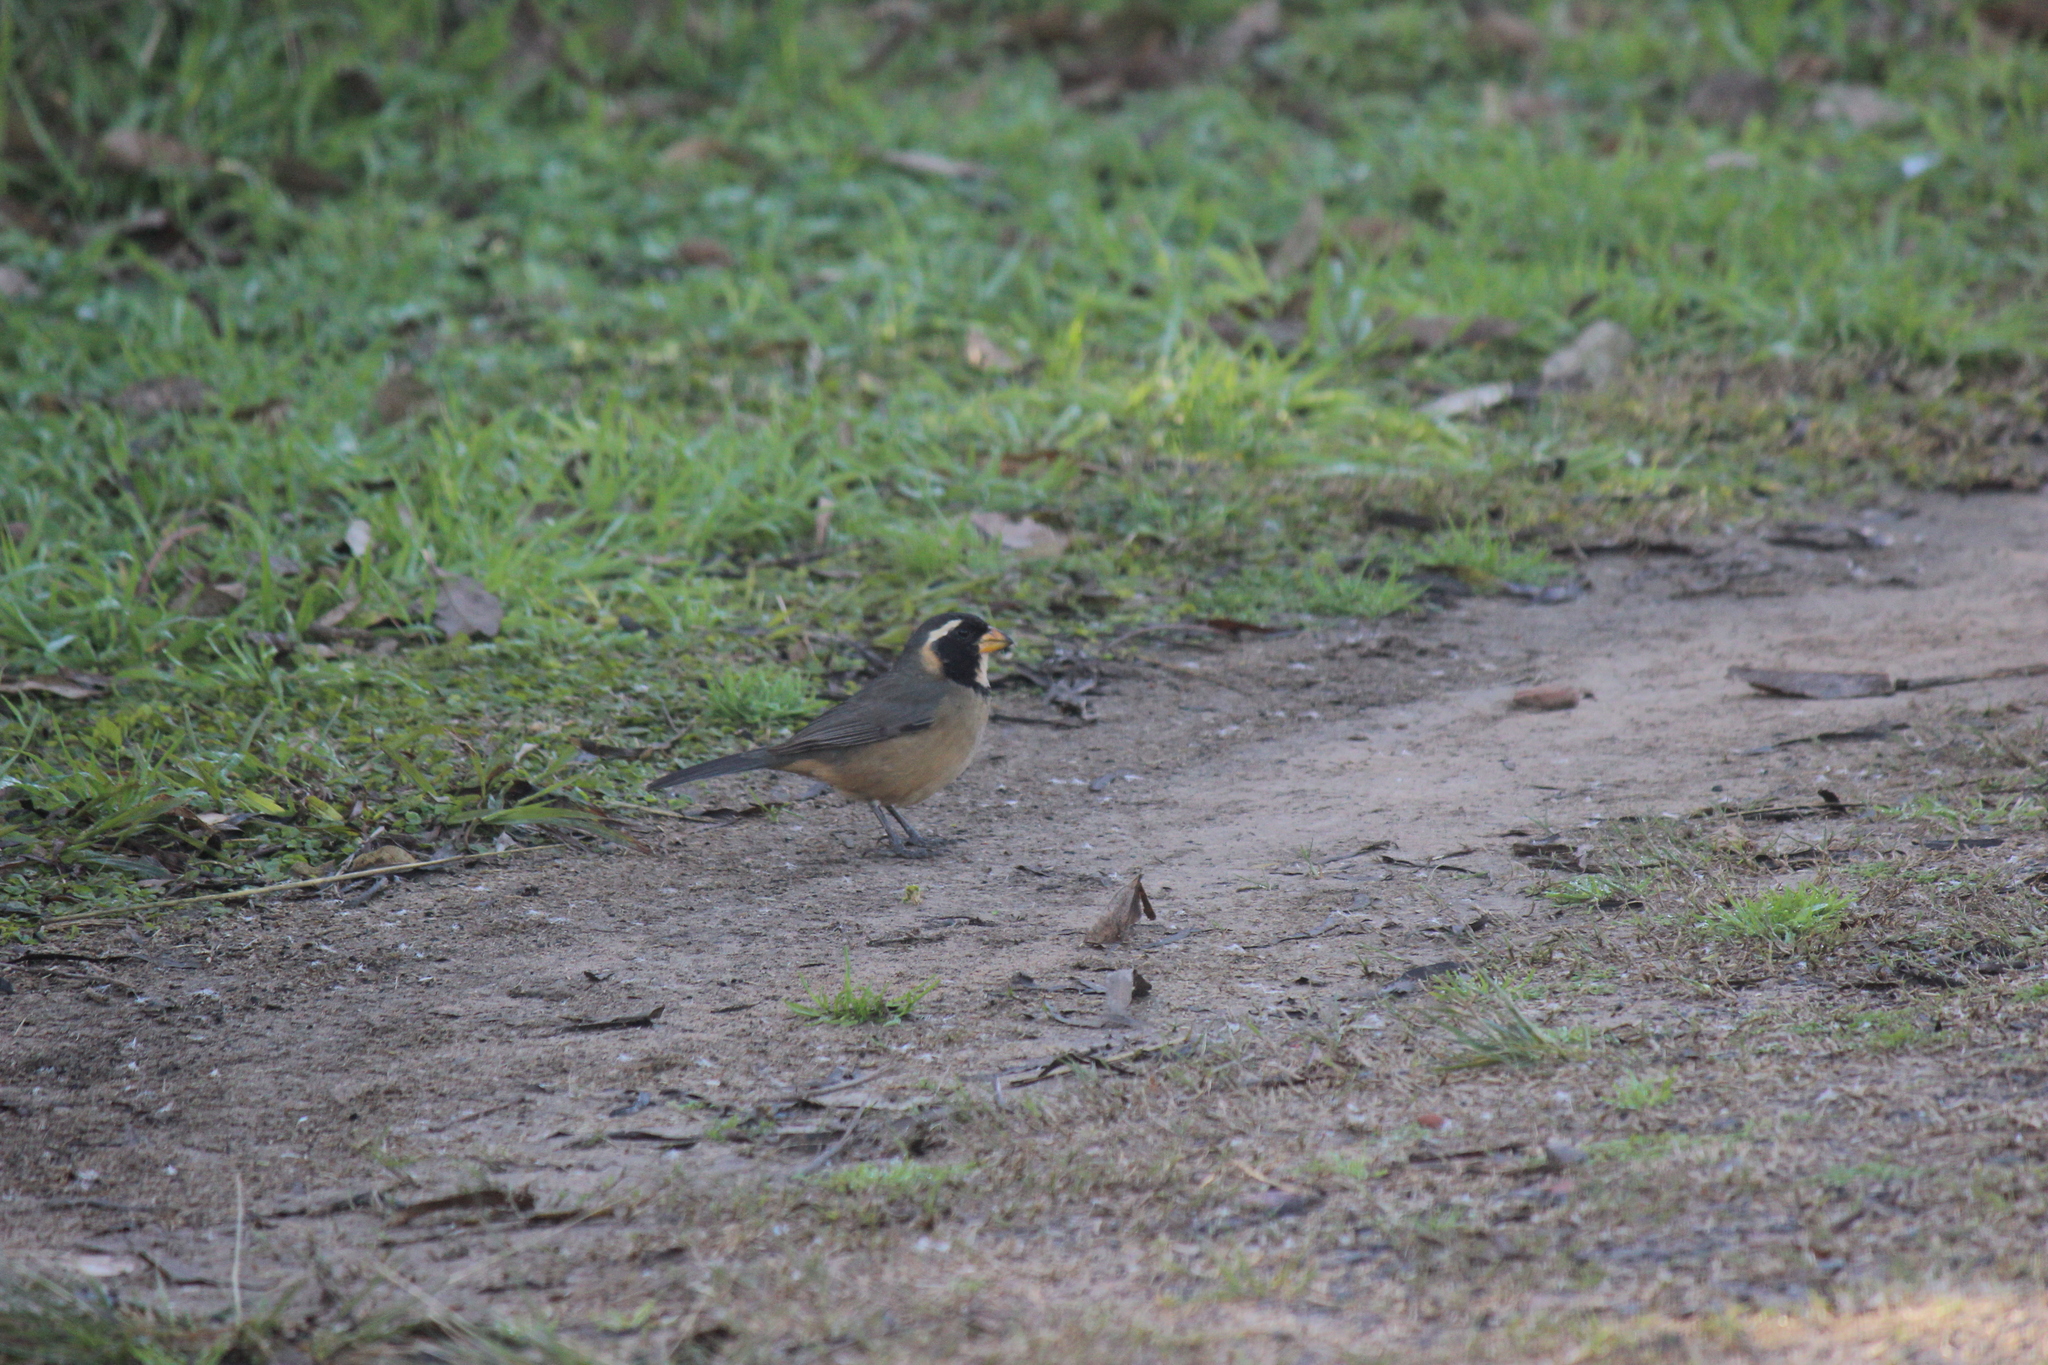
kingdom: Animalia
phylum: Chordata
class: Aves
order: Passeriformes
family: Thraupidae
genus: Saltator
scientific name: Saltator aurantiirostris
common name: Golden-billed saltator
